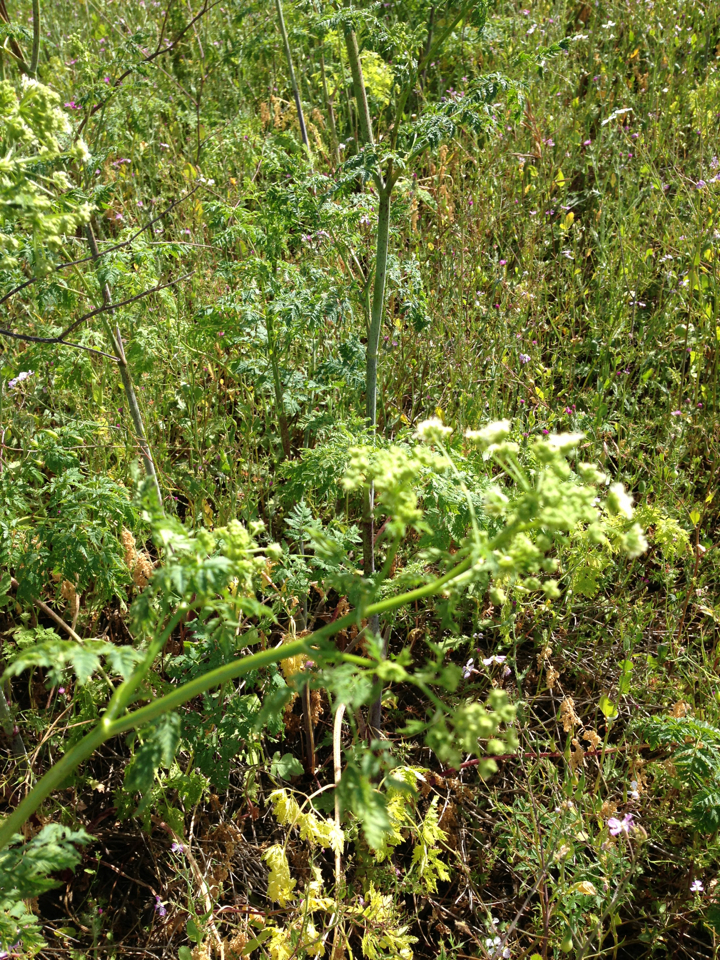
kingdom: Plantae
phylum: Tracheophyta
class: Magnoliopsida
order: Apiales
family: Apiaceae
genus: Conium
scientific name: Conium maculatum
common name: Hemlock
